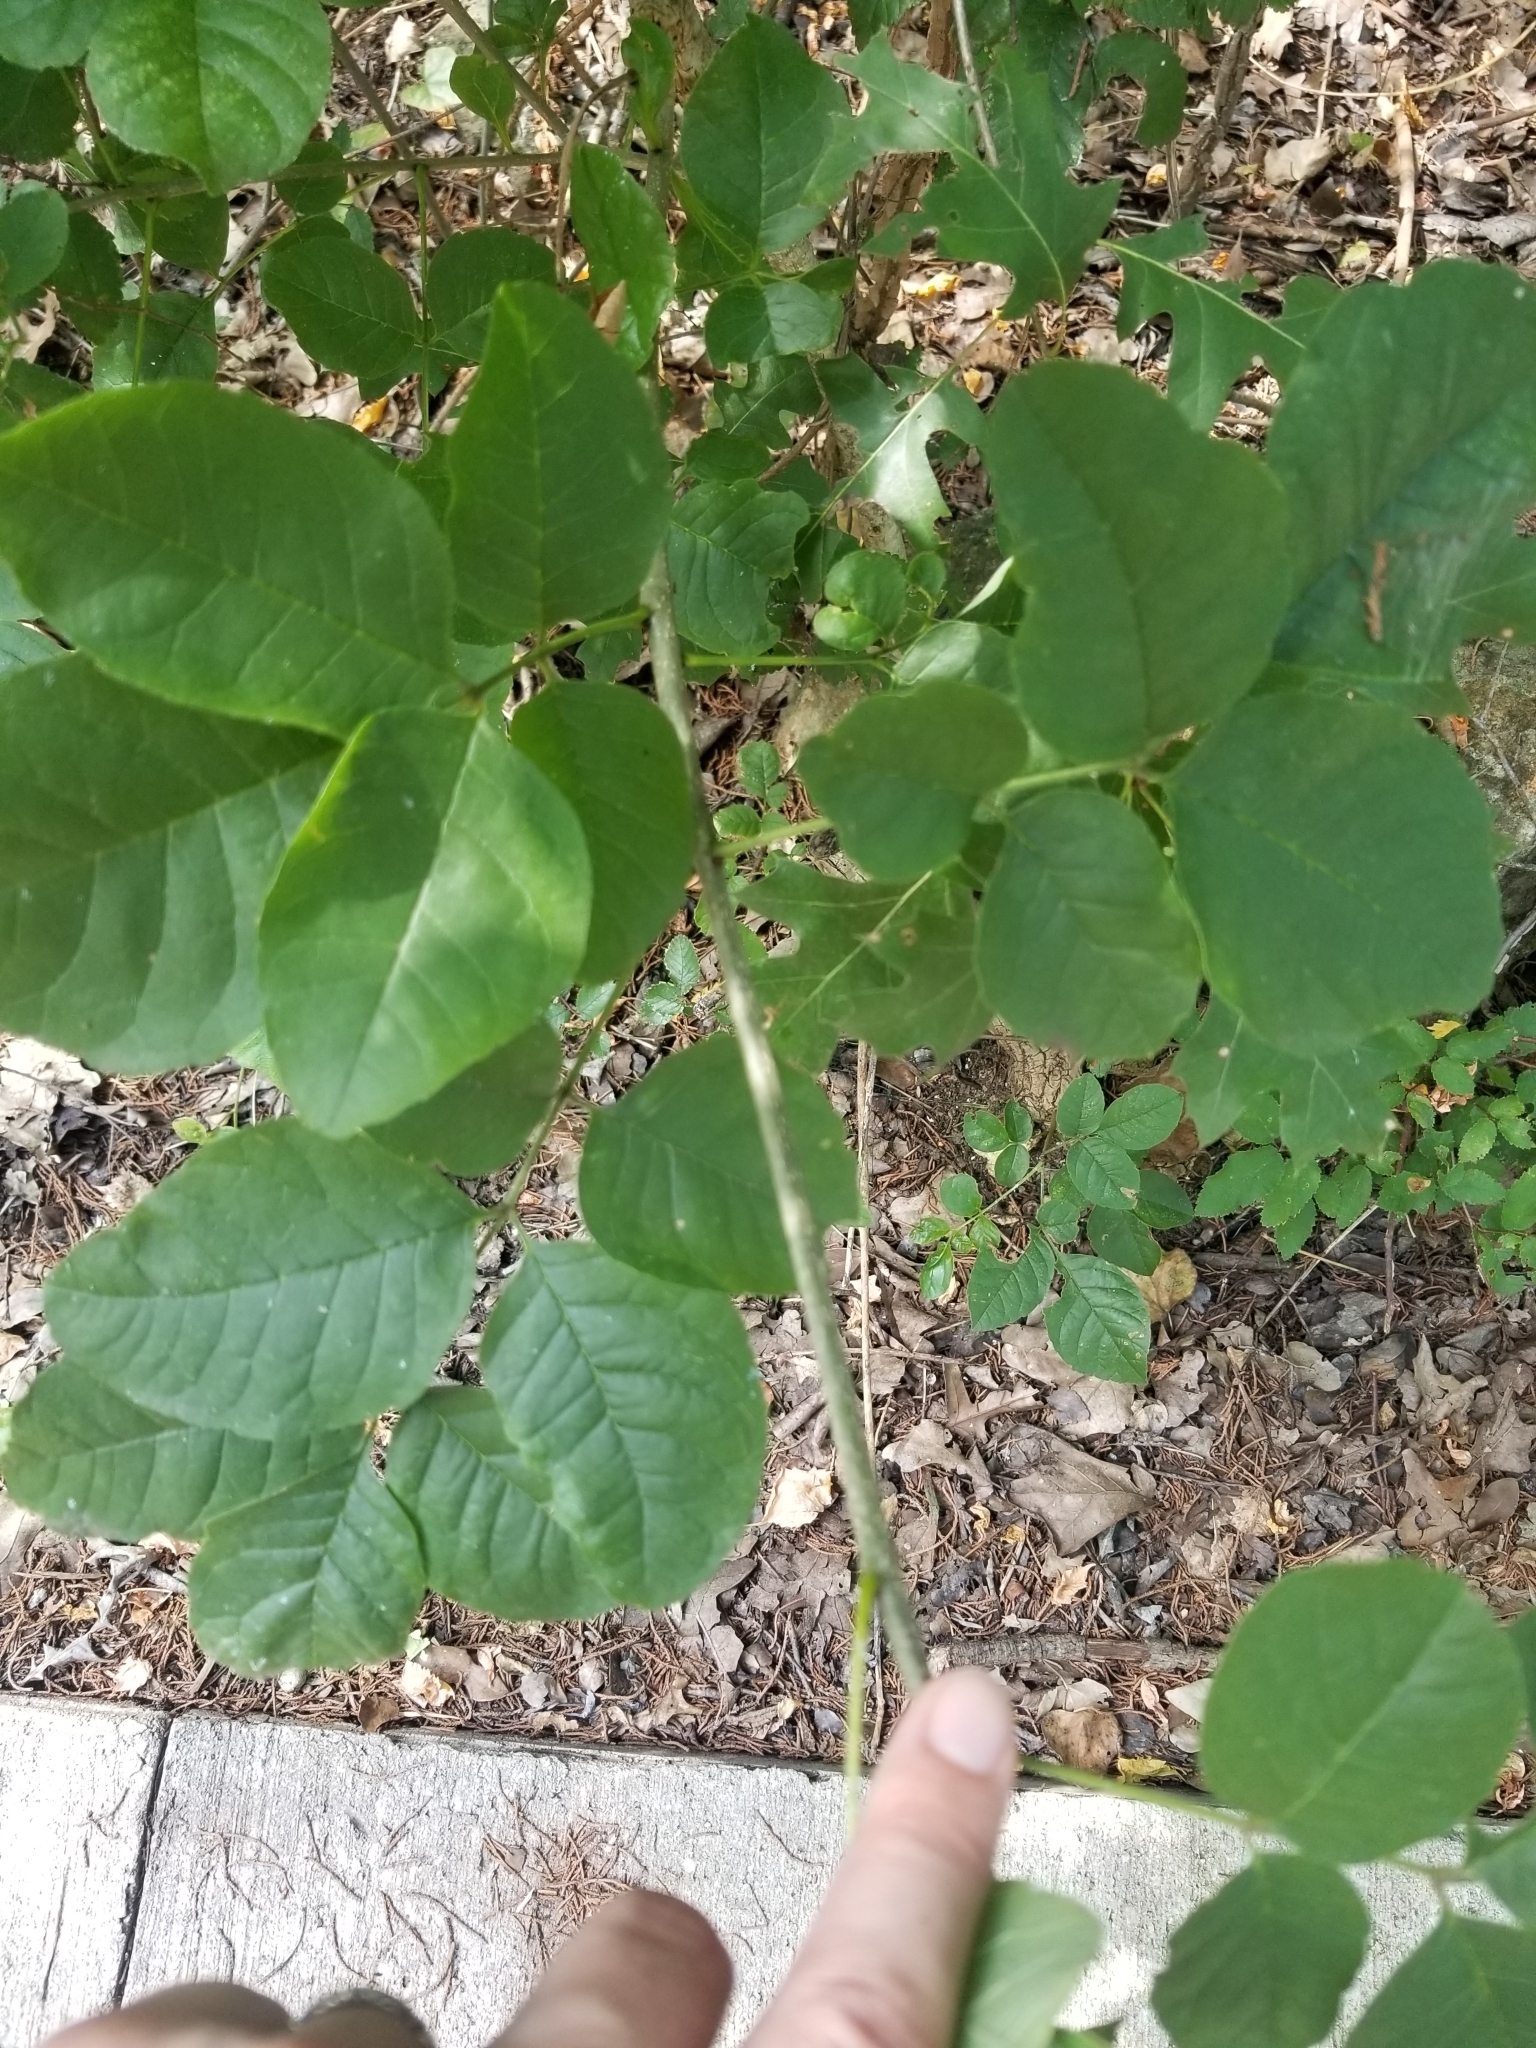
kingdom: Plantae
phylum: Tracheophyta
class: Magnoliopsida
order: Lamiales
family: Oleaceae
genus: Fraxinus
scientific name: Fraxinus albicans
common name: Texas ash
